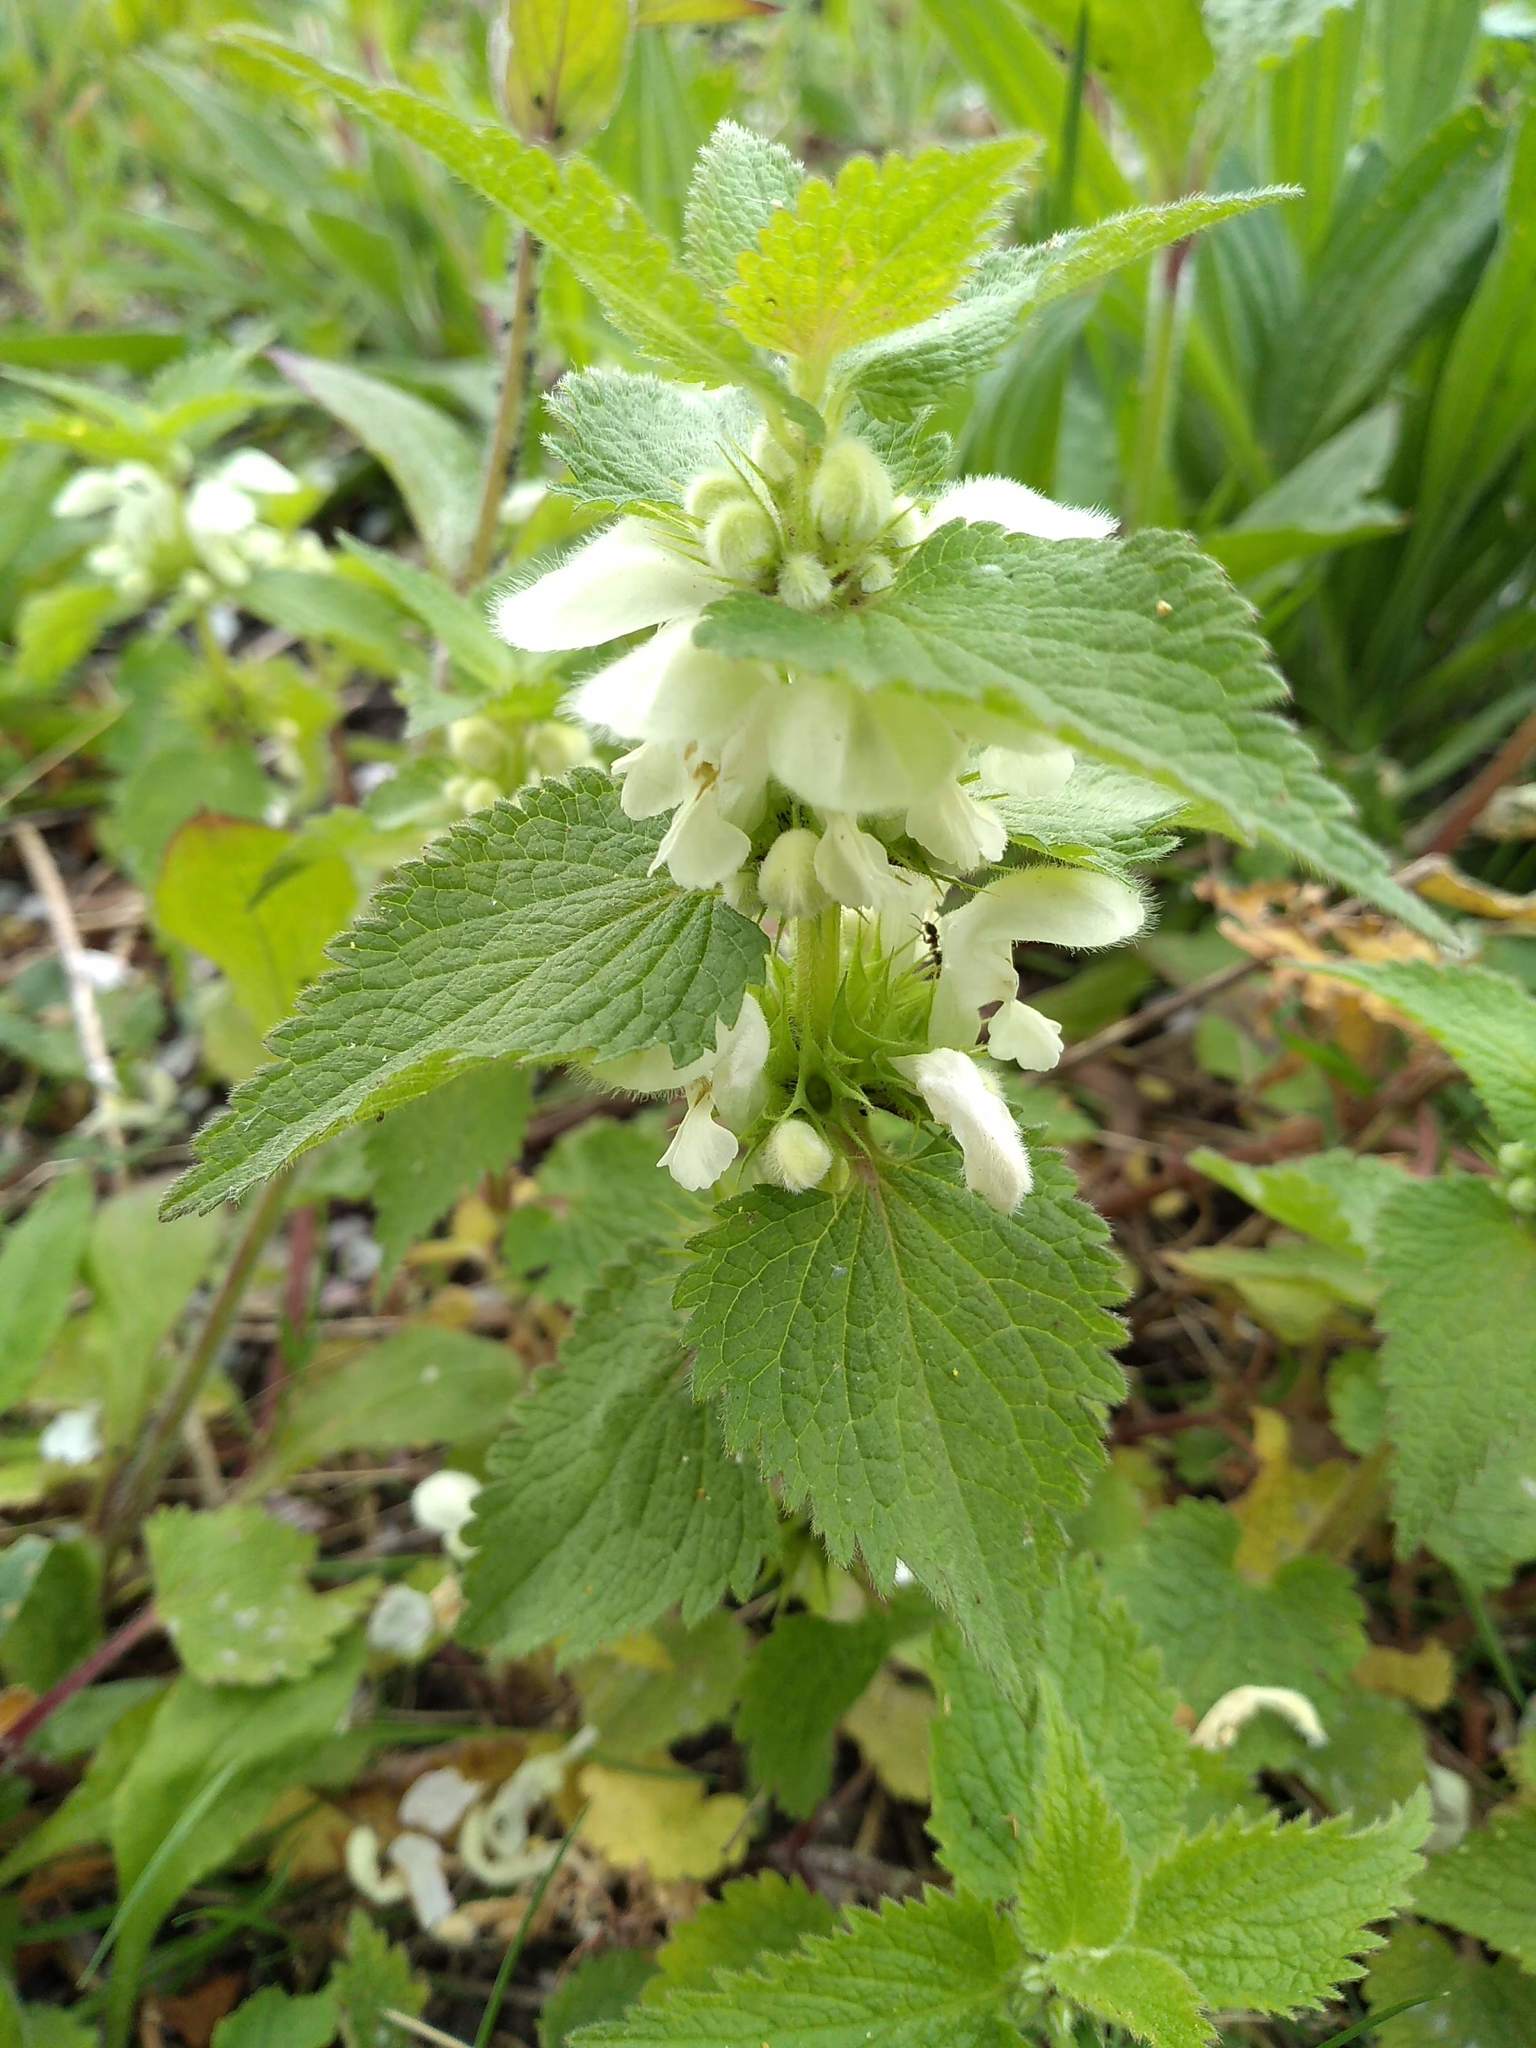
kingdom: Plantae
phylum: Tracheophyta
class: Magnoliopsida
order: Lamiales
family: Lamiaceae
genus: Lamium
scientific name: Lamium album
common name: White dead-nettle
